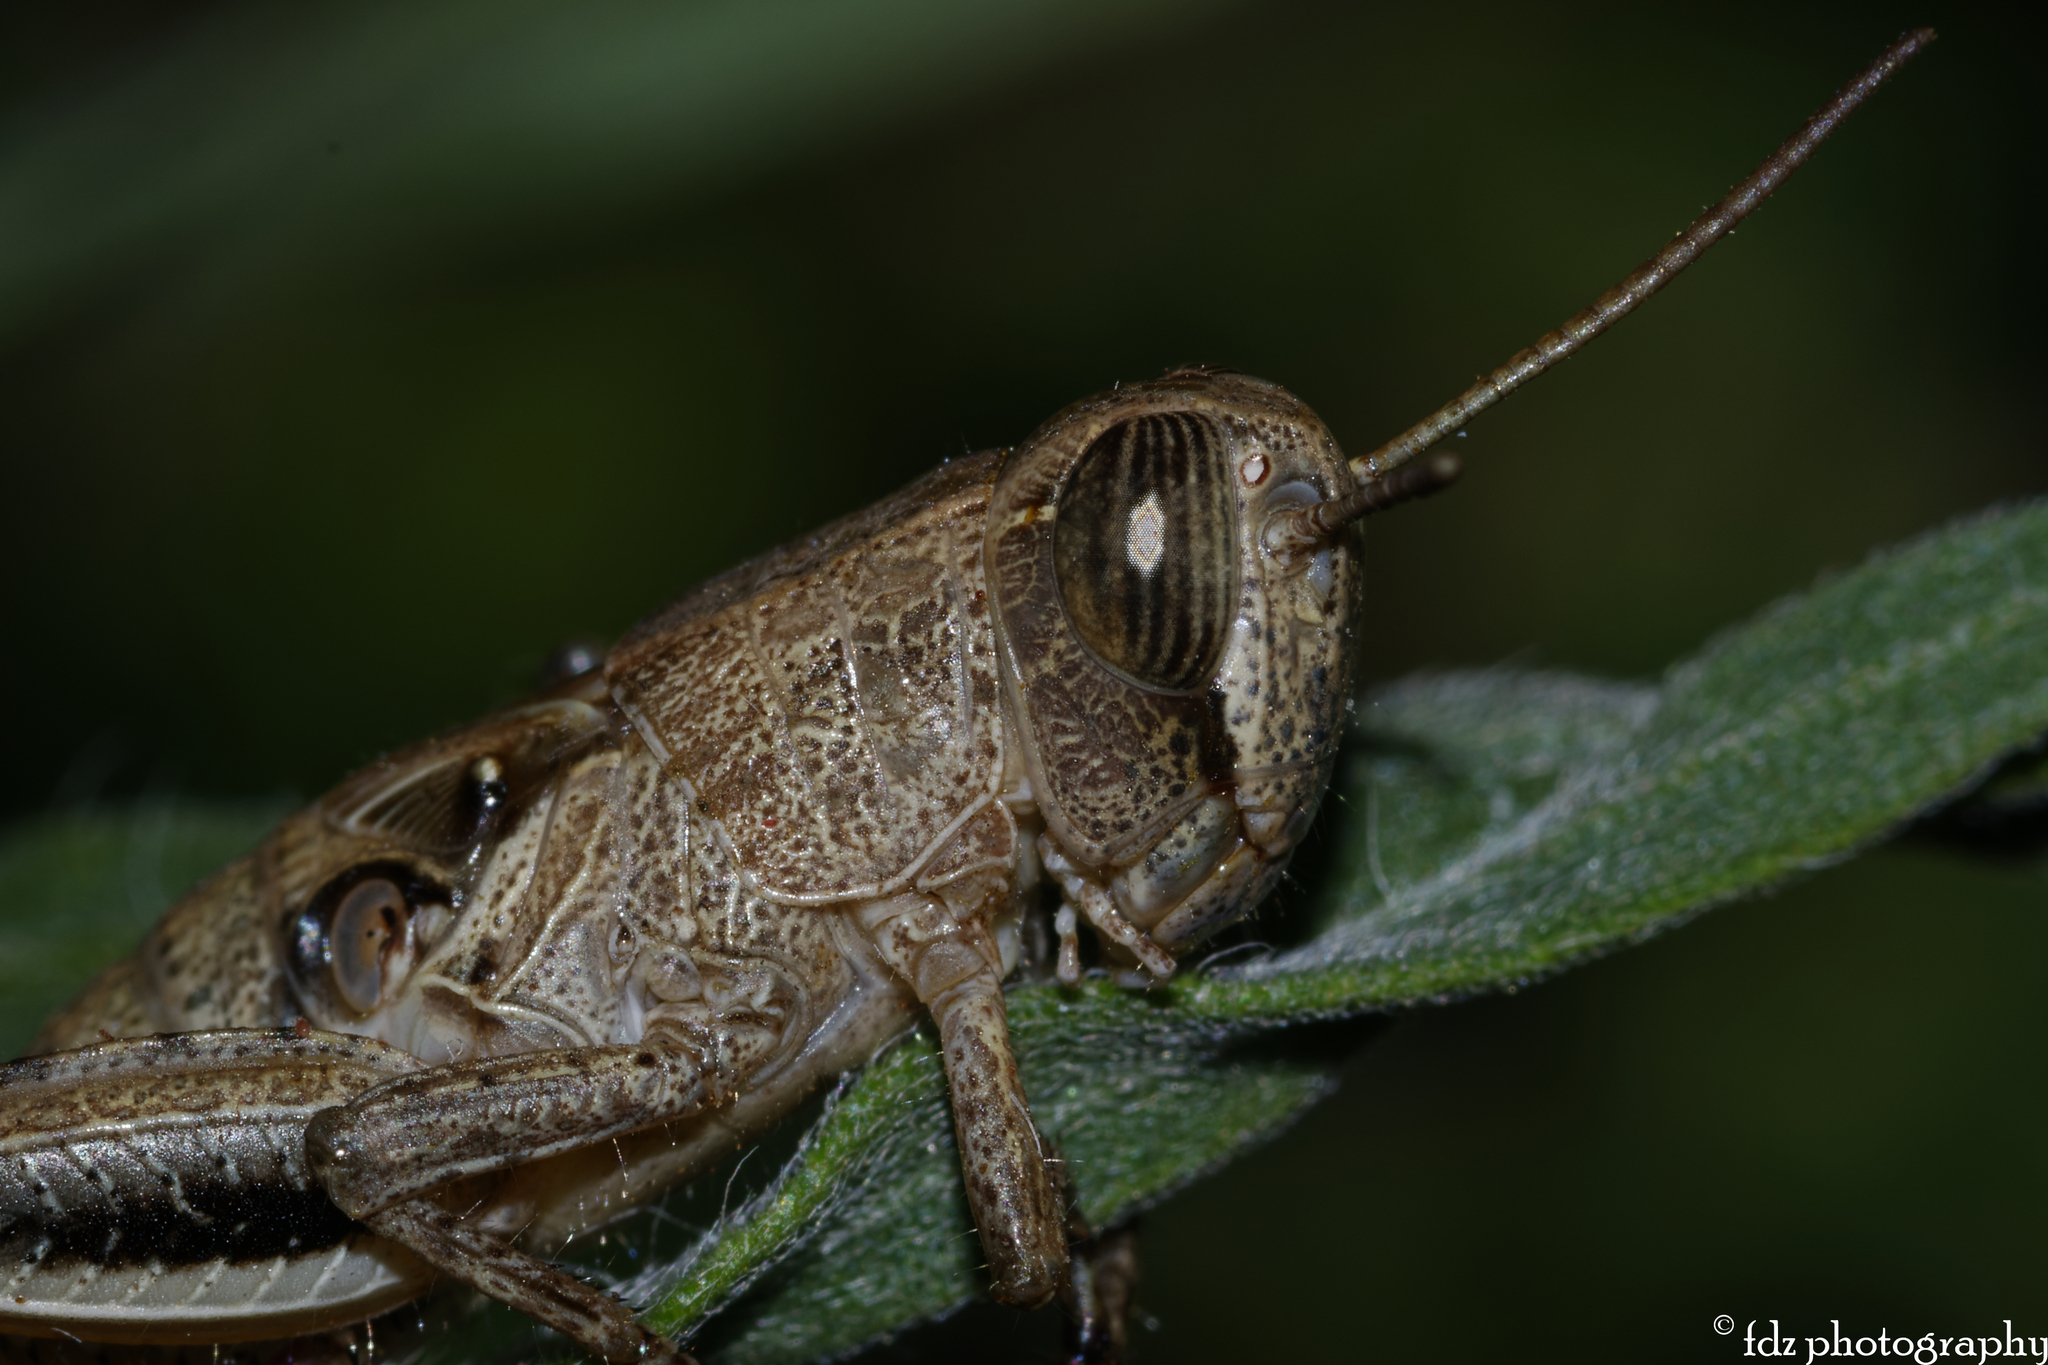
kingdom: Animalia
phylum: Arthropoda
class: Insecta
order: Orthoptera
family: Acrididae
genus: Eyprepocnemis
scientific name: Eyprepocnemis plorans
